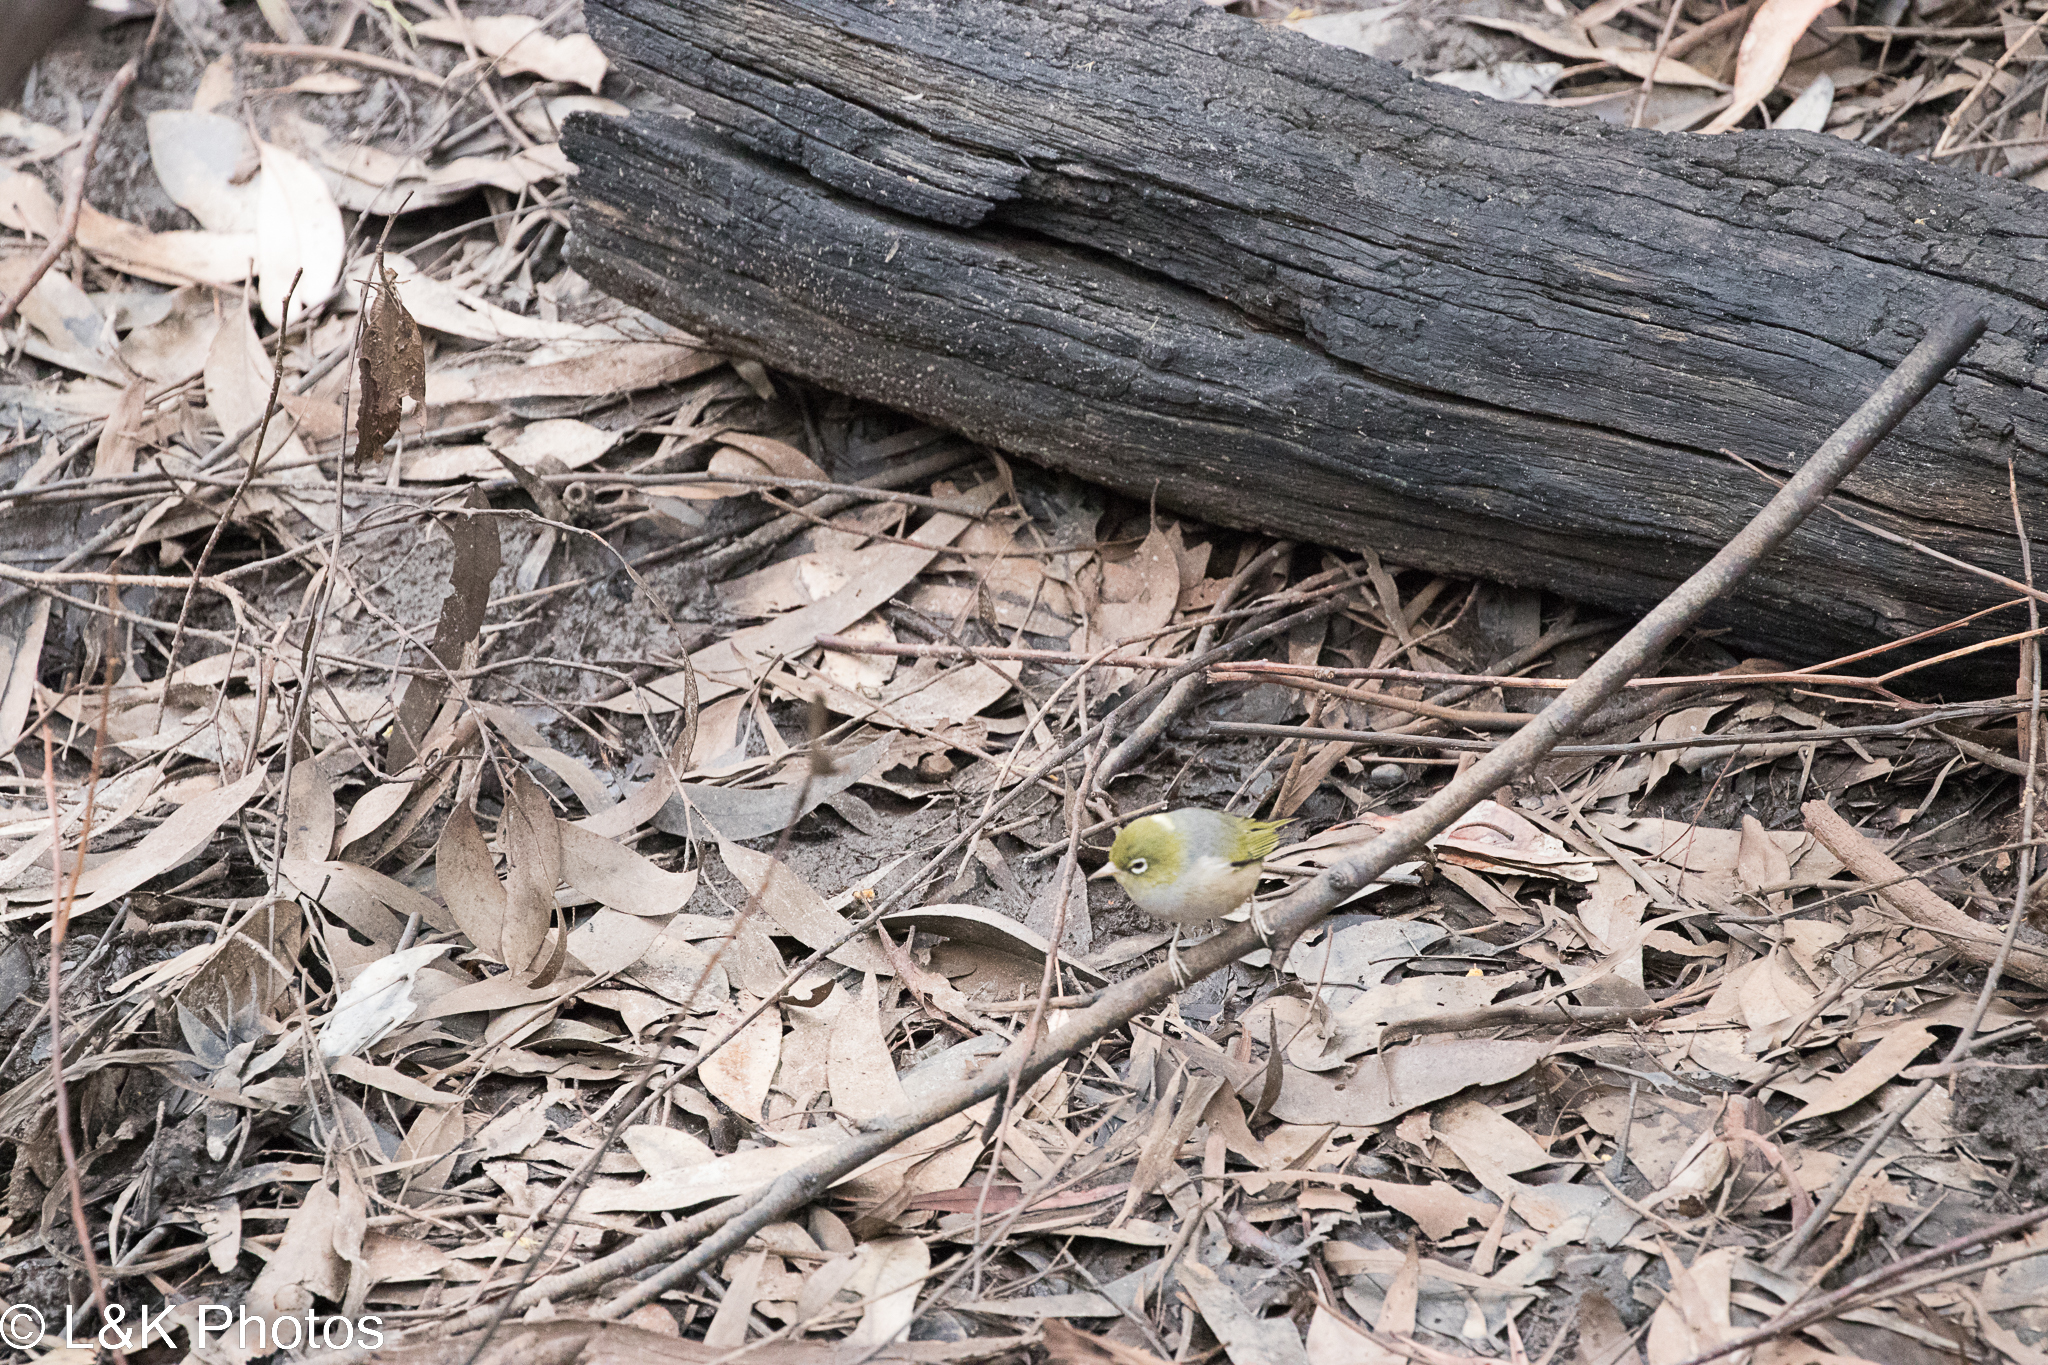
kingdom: Animalia
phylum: Chordata
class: Aves
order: Passeriformes
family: Zosteropidae
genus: Zosterops
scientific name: Zosterops lateralis
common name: Silvereye
